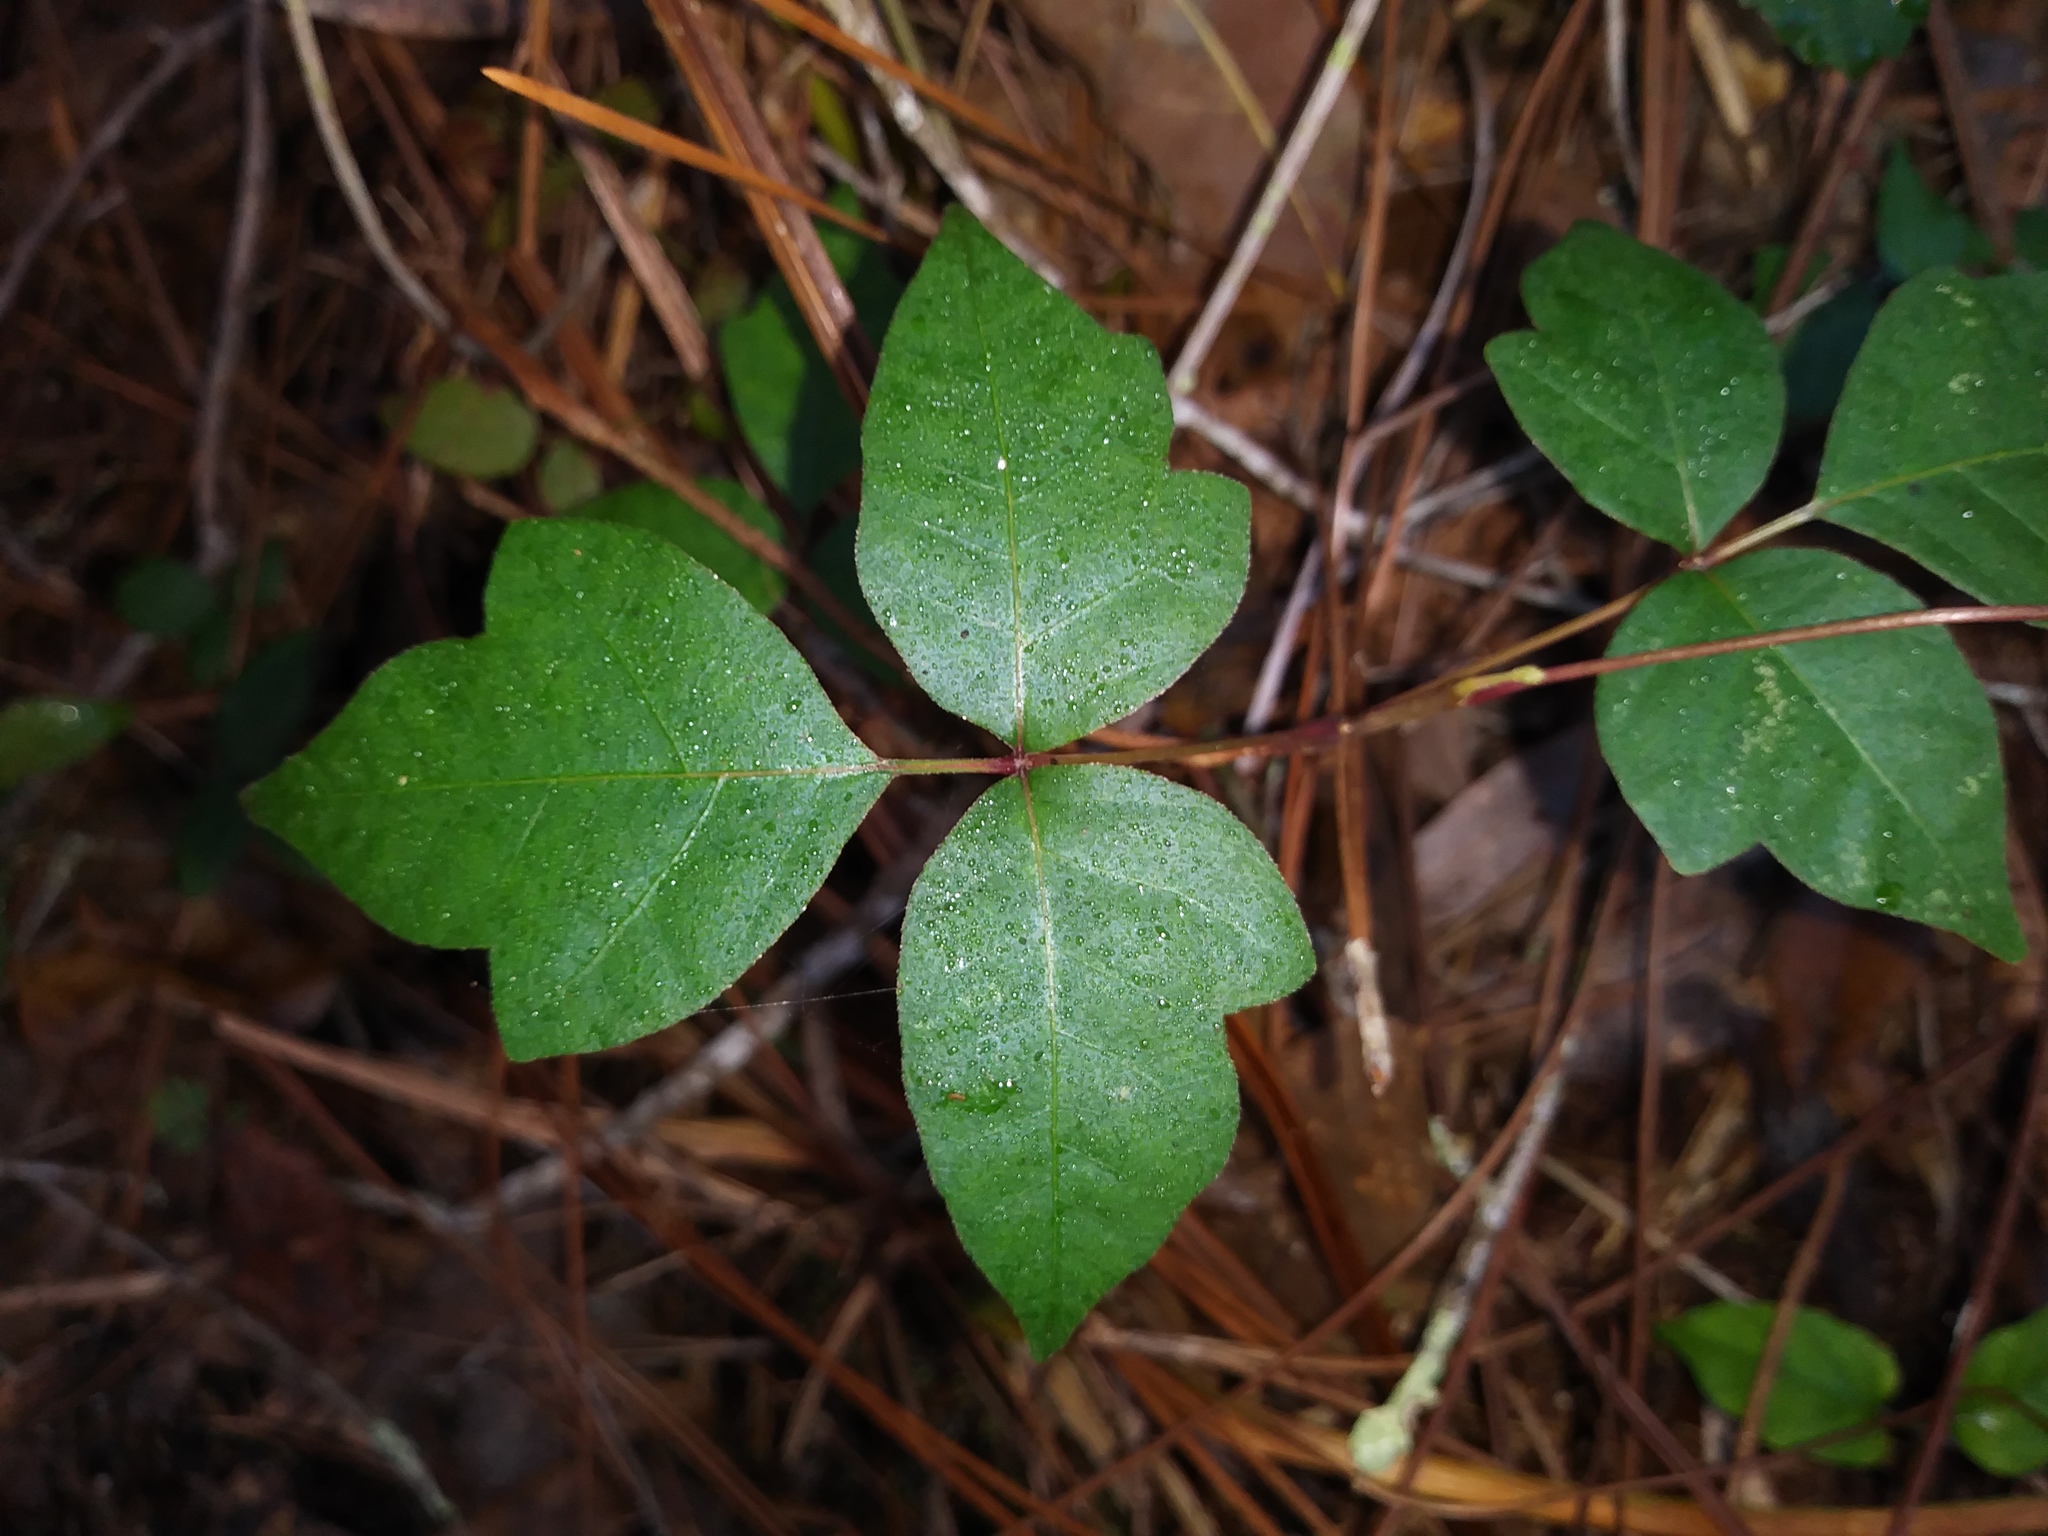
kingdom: Plantae
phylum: Tracheophyta
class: Magnoliopsida
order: Sapindales
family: Anacardiaceae
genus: Toxicodendron
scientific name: Toxicodendron radicans
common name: Poison ivy
